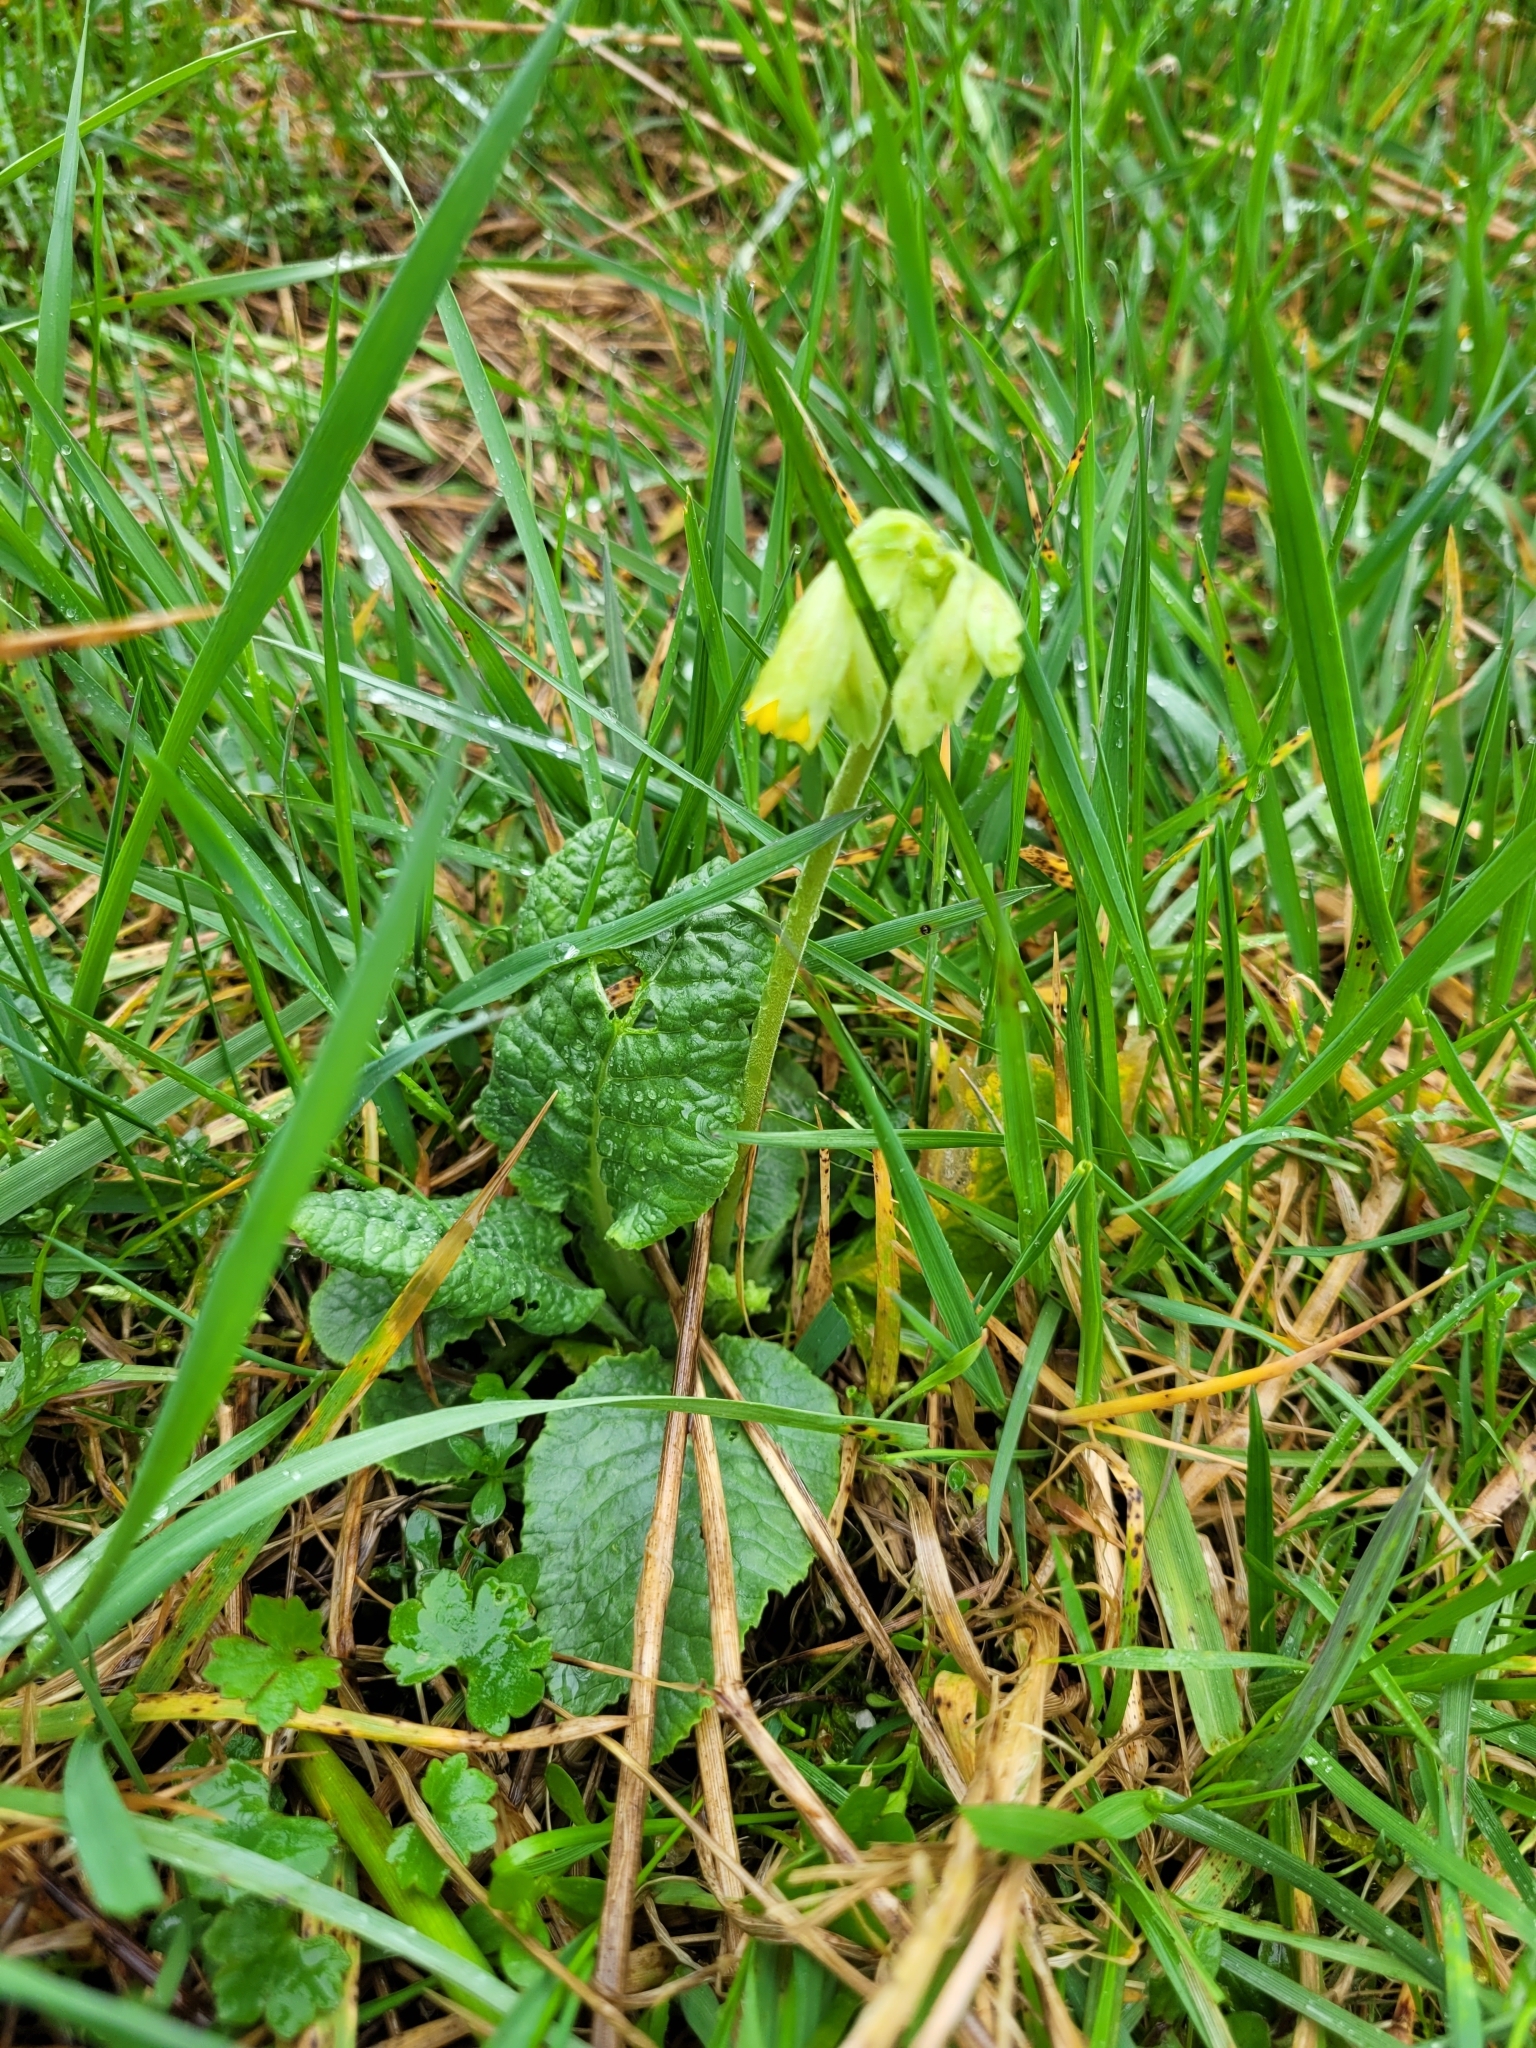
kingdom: Plantae
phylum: Tracheophyta
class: Magnoliopsida
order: Ericales
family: Primulaceae
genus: Primula
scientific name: Primula veris
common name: Cowslip
